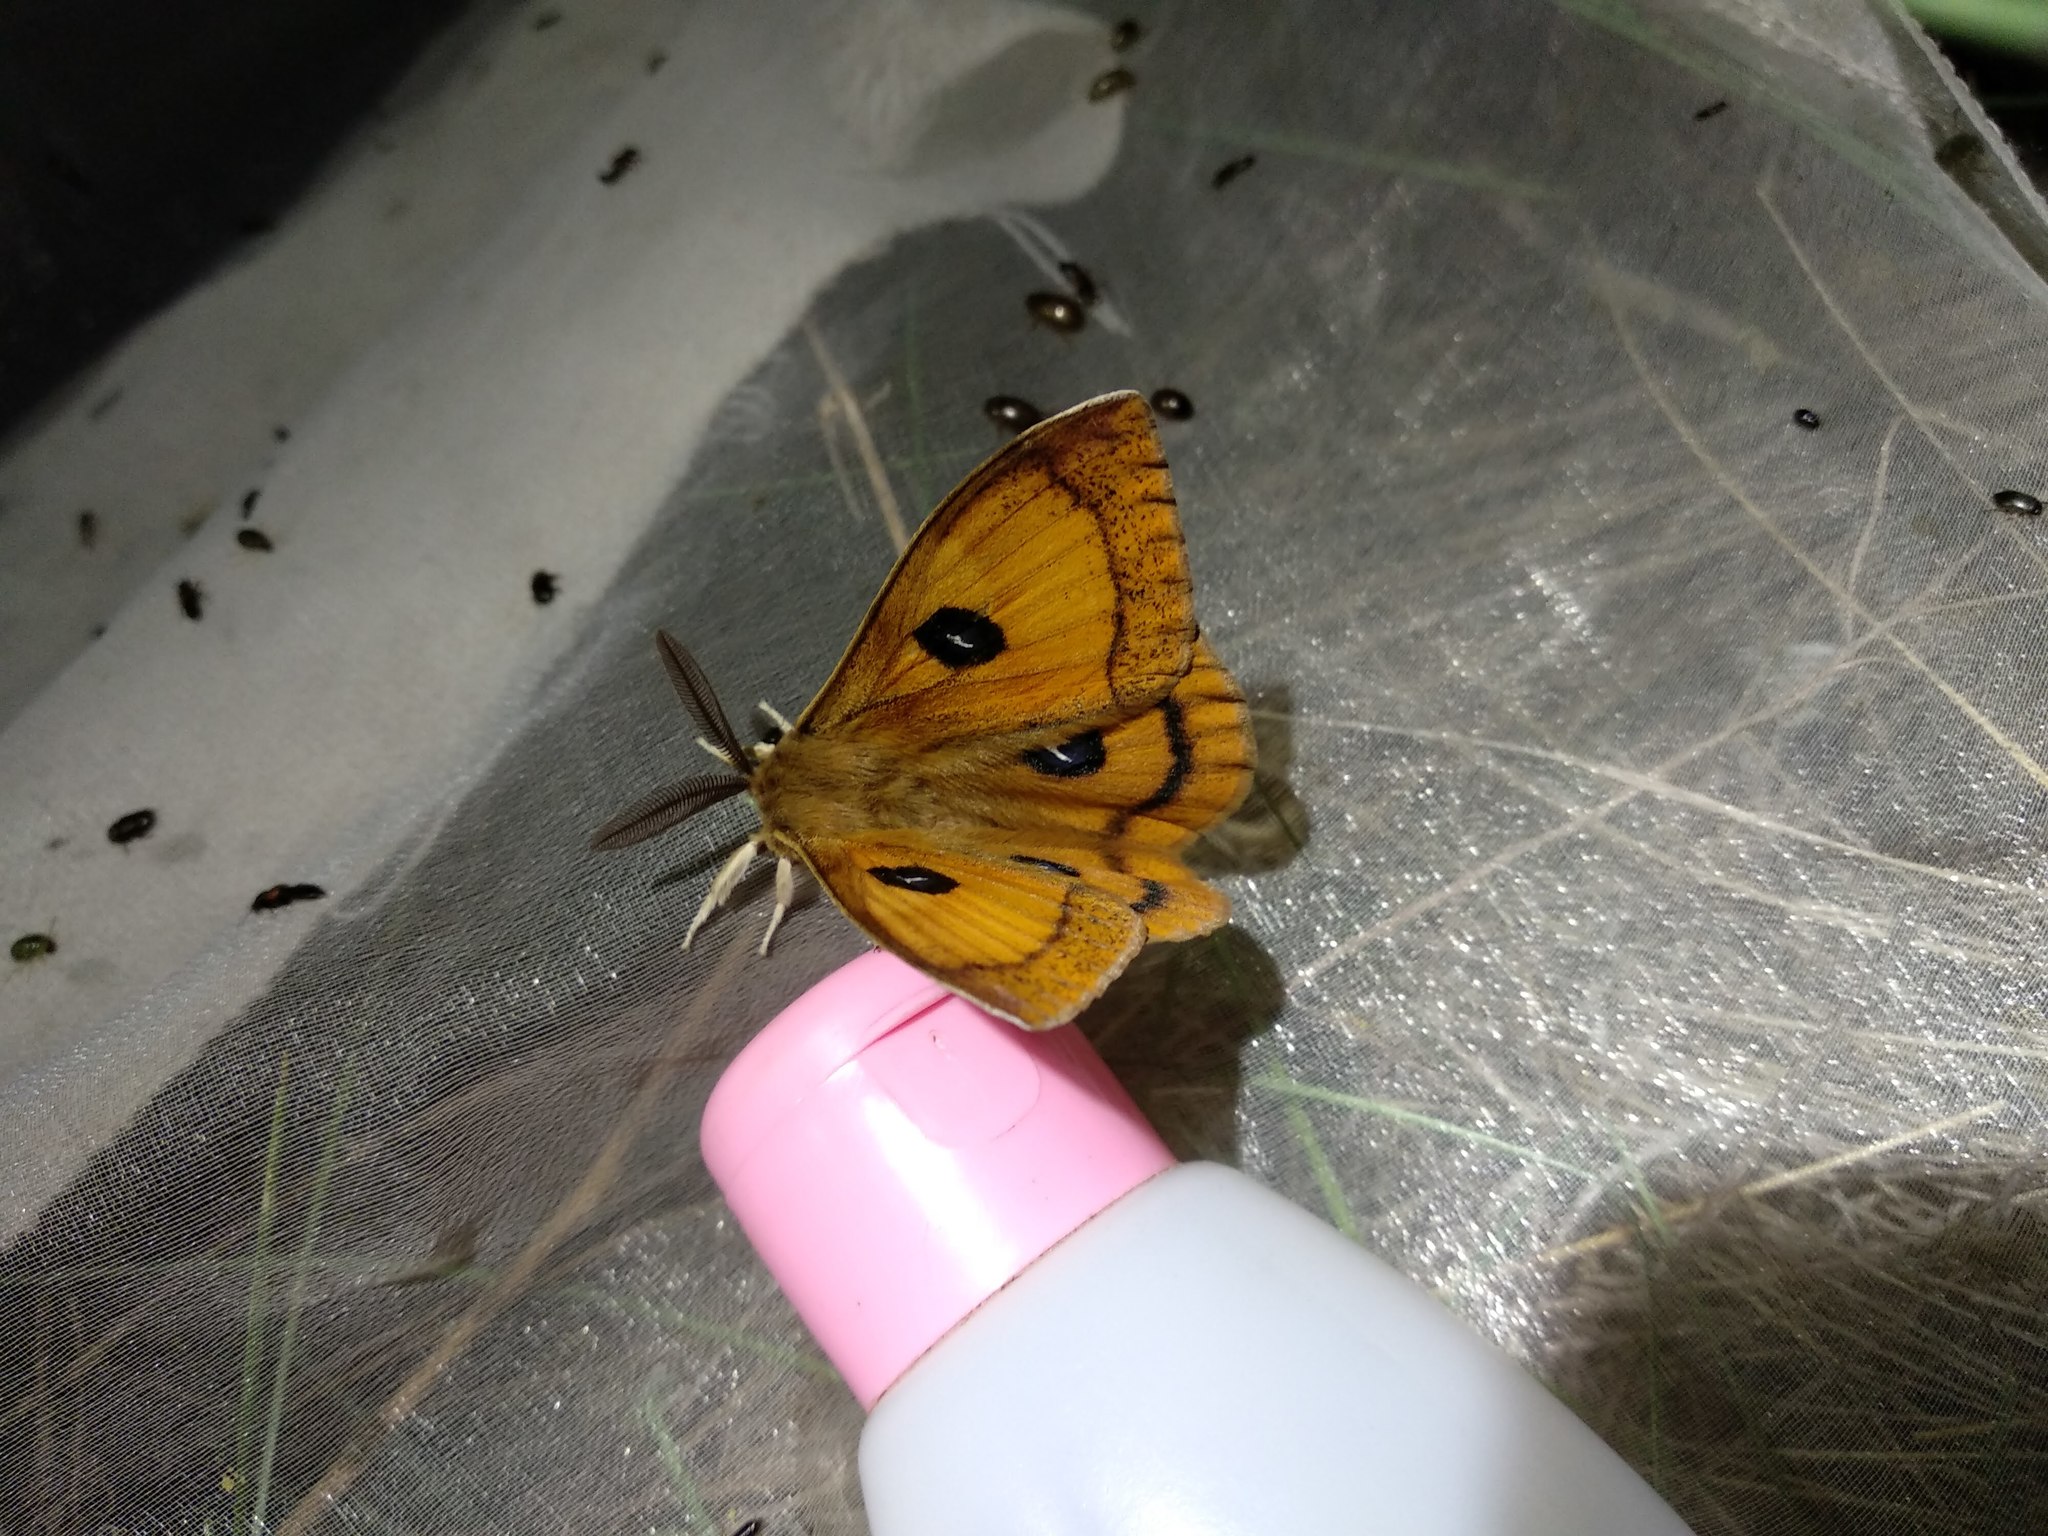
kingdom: Animalia
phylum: Arthropoda
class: Insecta
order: Lepidoptera
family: Saturniidae
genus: Aglia
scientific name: Aglia tau
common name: Tau emperor
